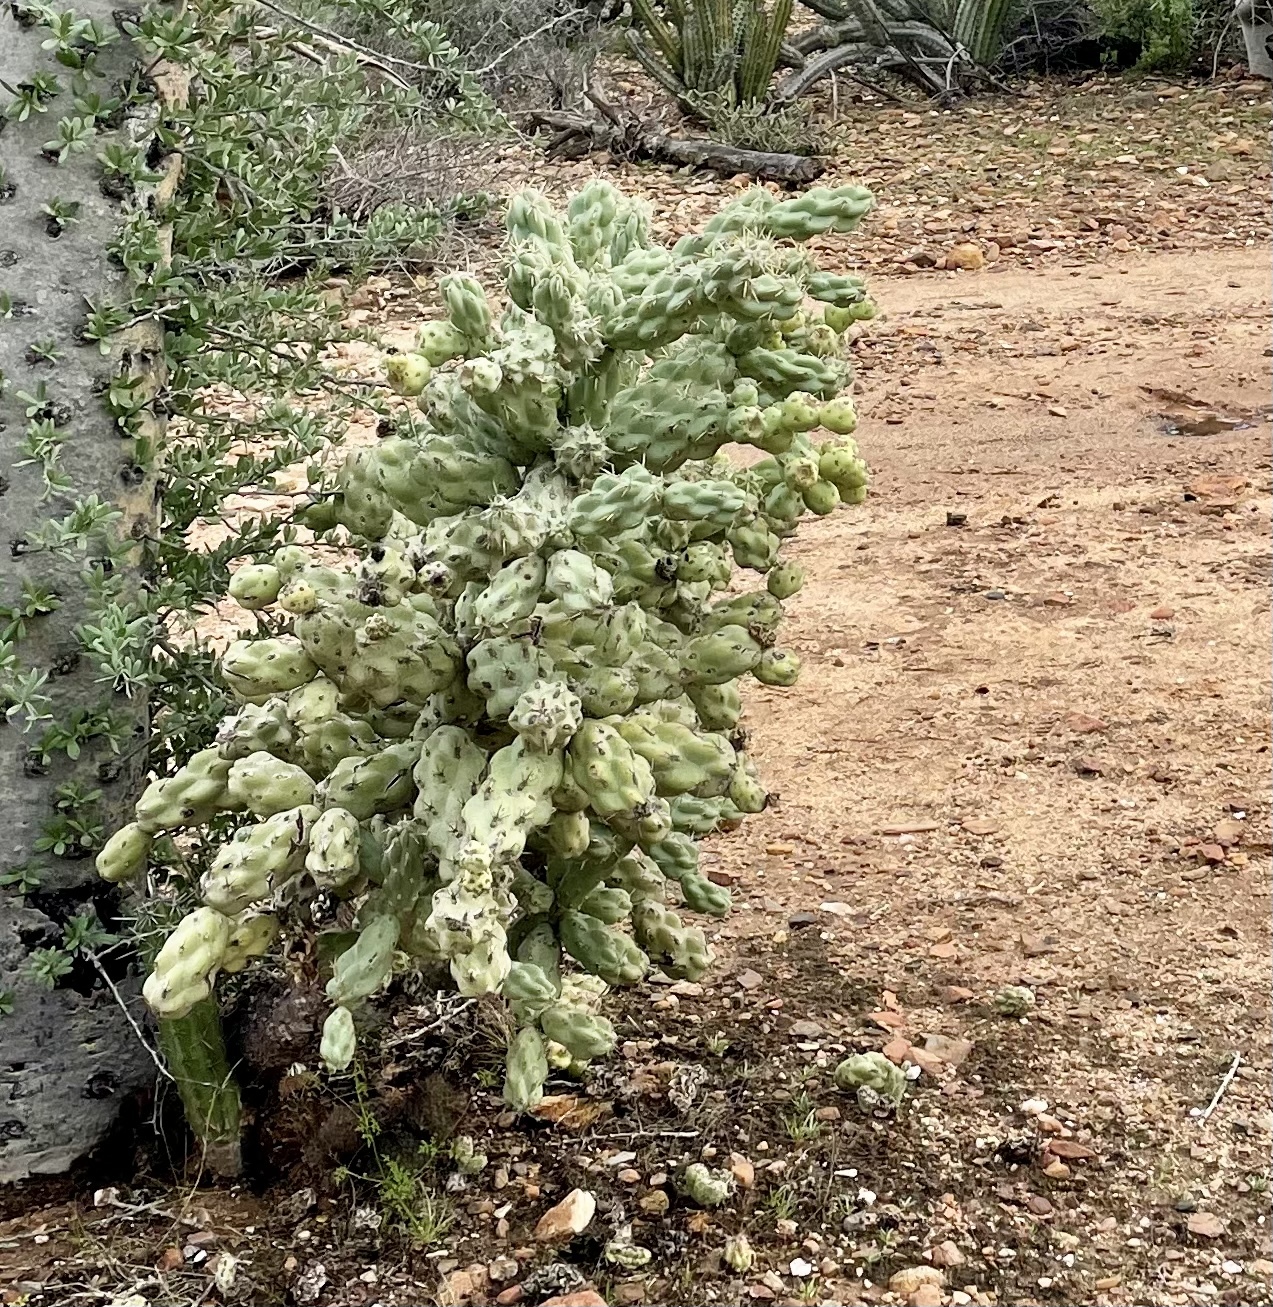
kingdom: Plantae
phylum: Tracheophyta
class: Magnoliopsida
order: Caryophyllales
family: Cactaceae
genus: Cylindropuntia
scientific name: Cylindropuntia cholla
